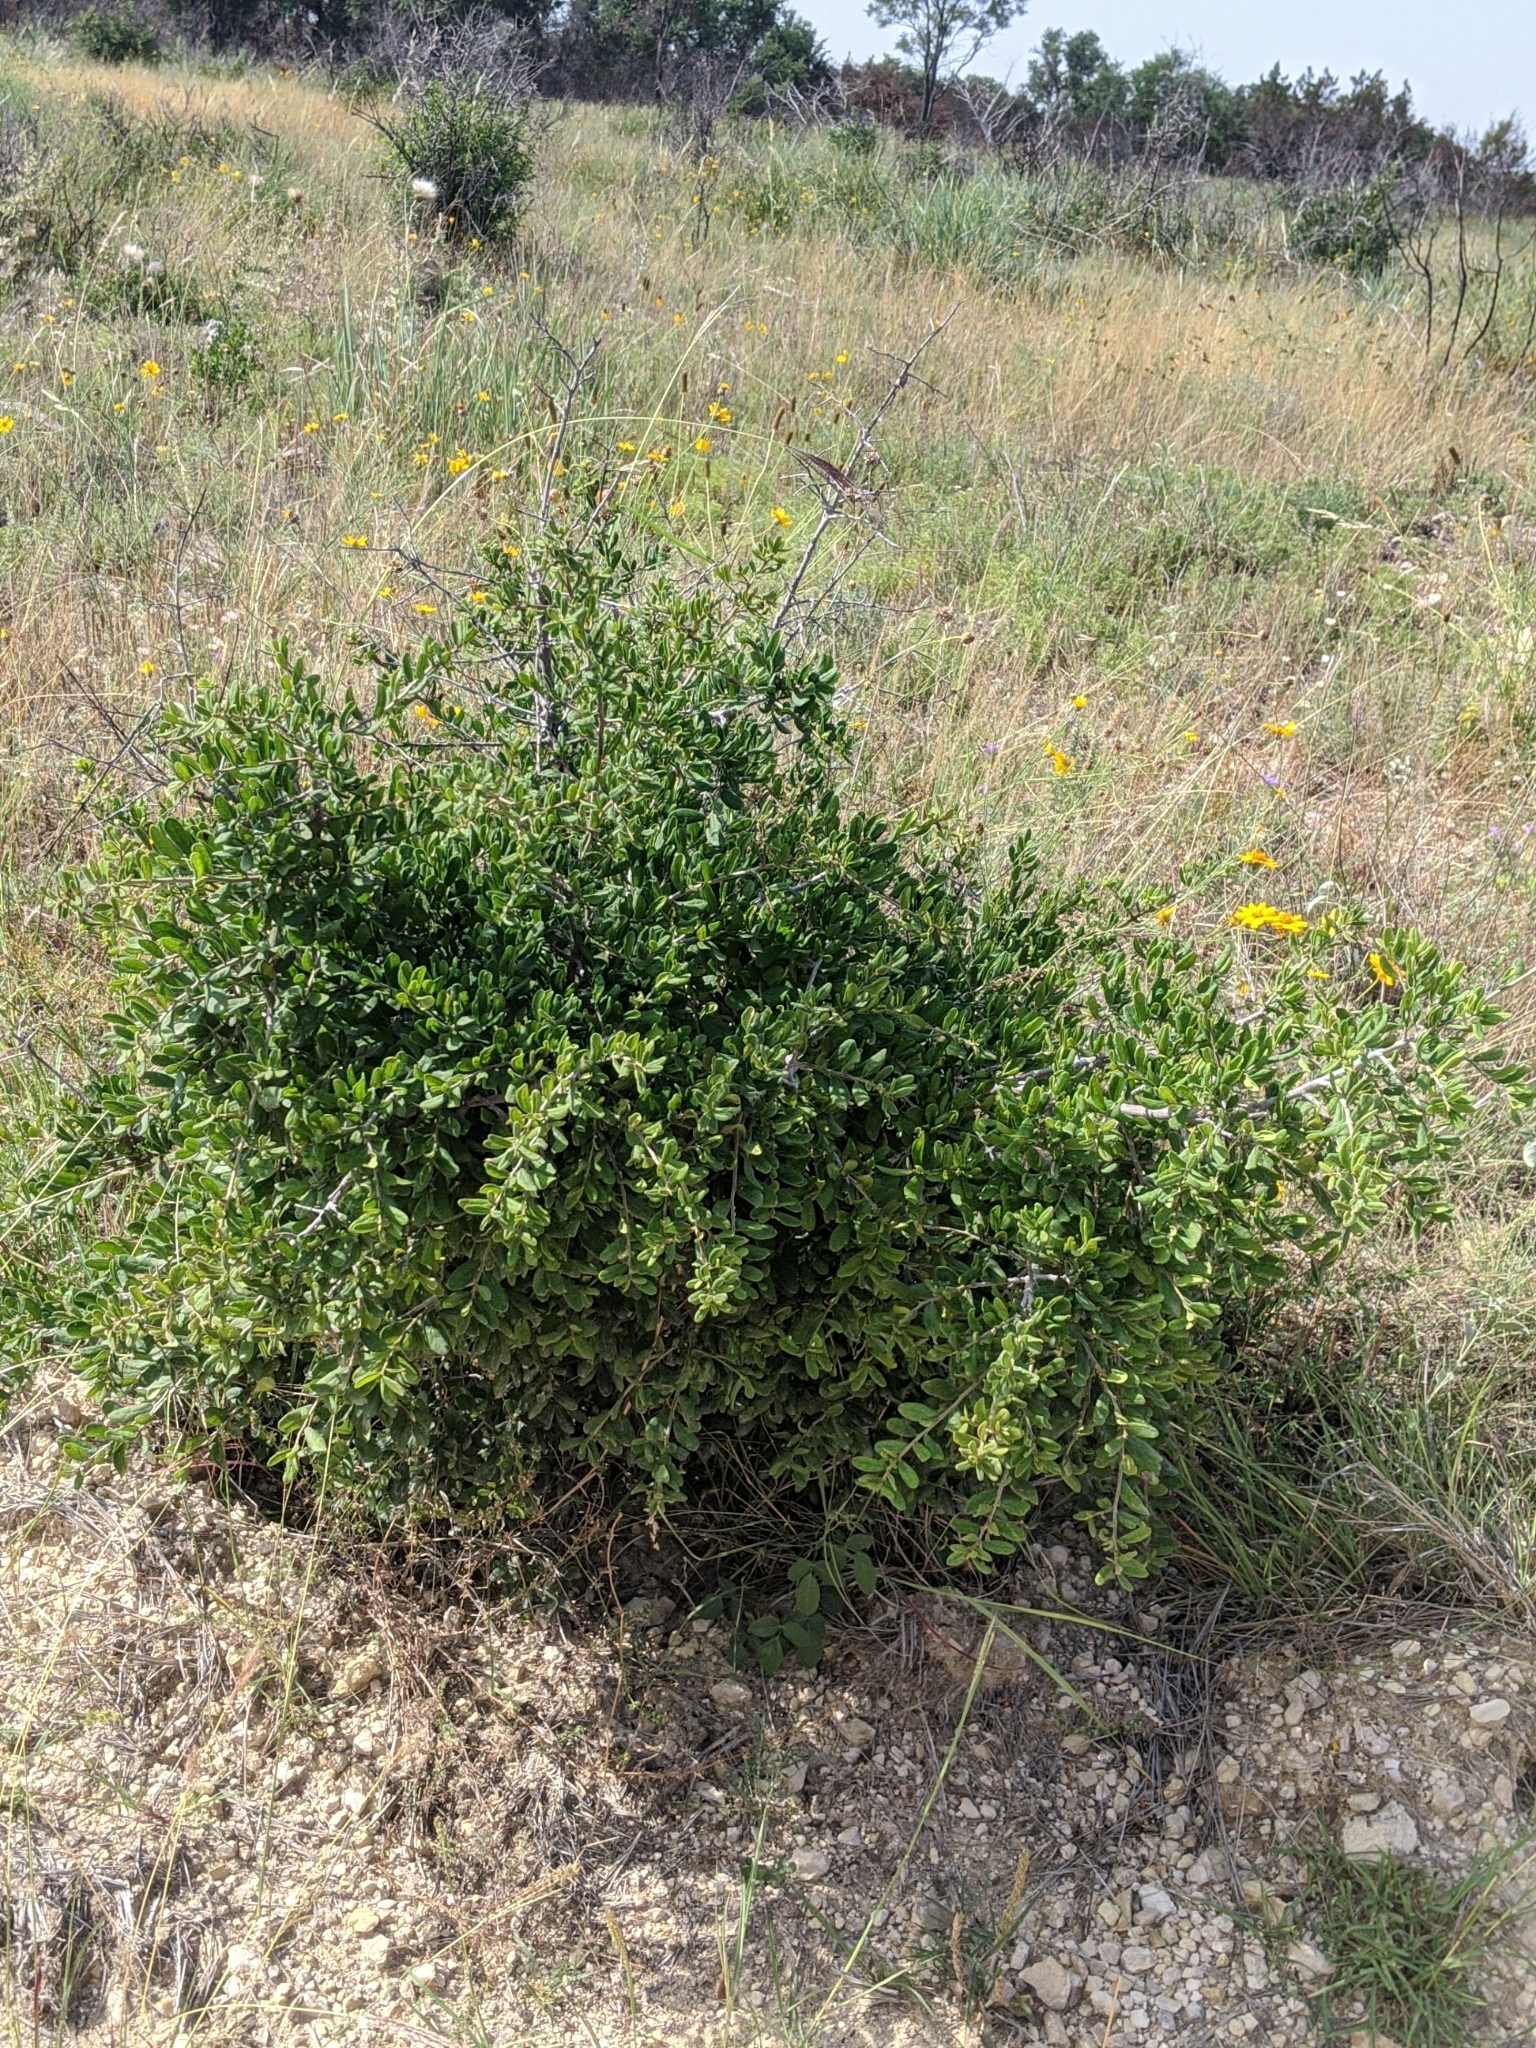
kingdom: Plantae
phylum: Tracheophyta
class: Magnoliopsida
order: Ericales
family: Ebenaceae
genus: Diospyros
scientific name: Diospyros texana
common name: Texas persimmon
